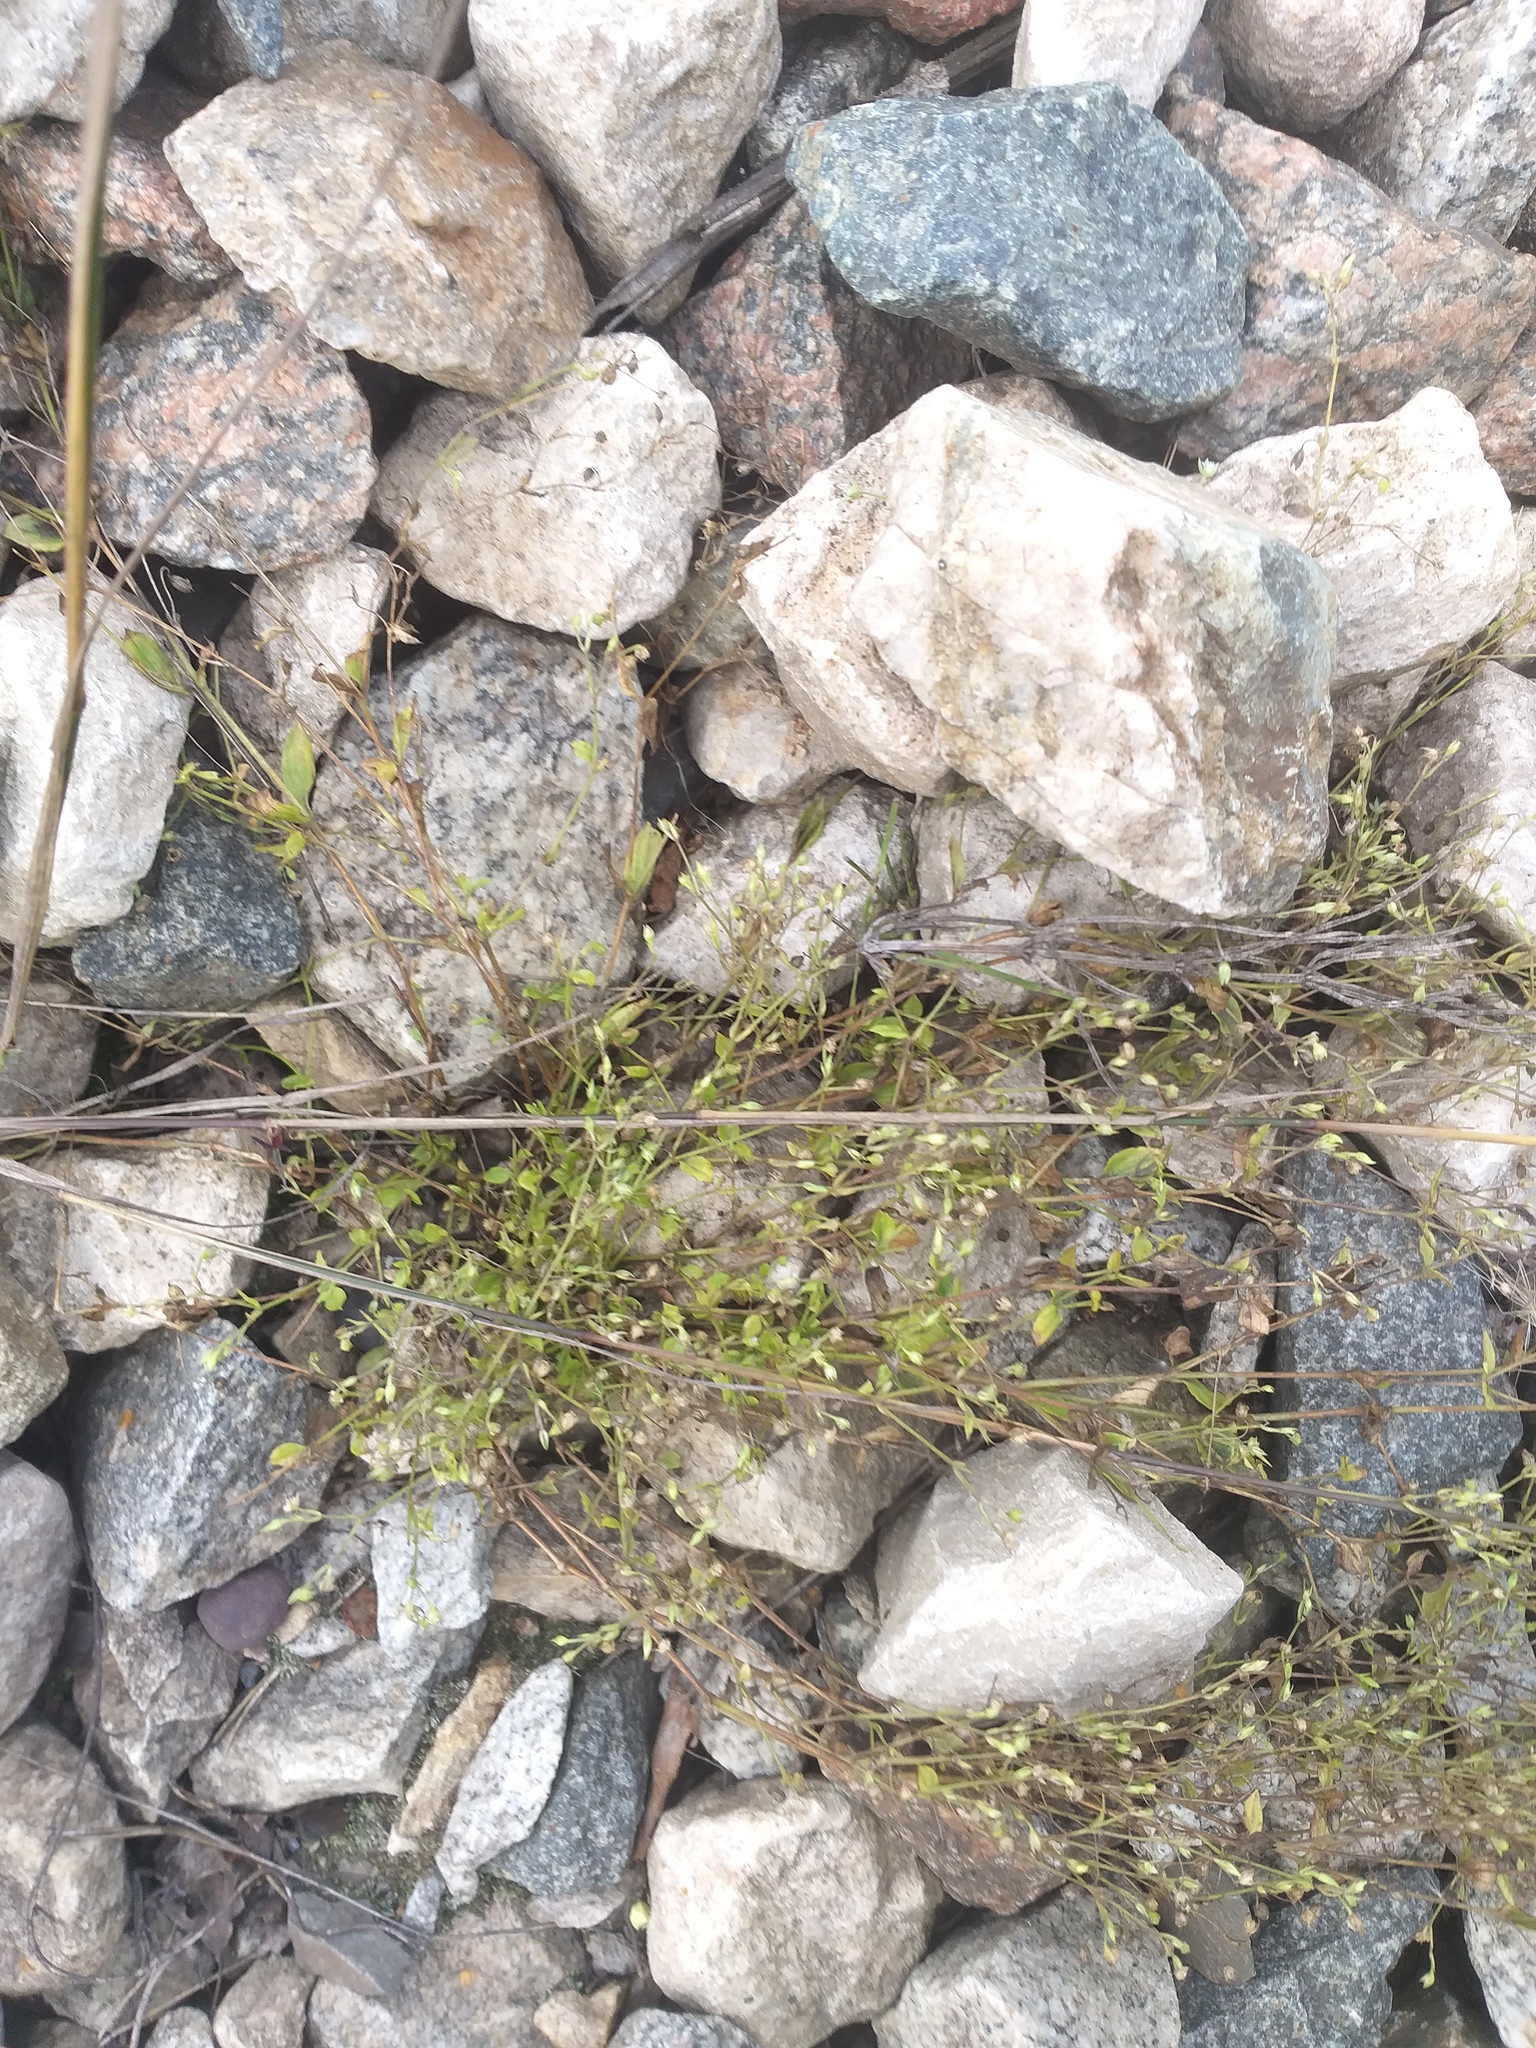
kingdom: Plantae
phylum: Tracheophyta
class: Magnoliopsida
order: Caryophyllales
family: Caryophyllaceae
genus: Moehringia
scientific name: Moehringia trinervia
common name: Three-nerved sandwort
